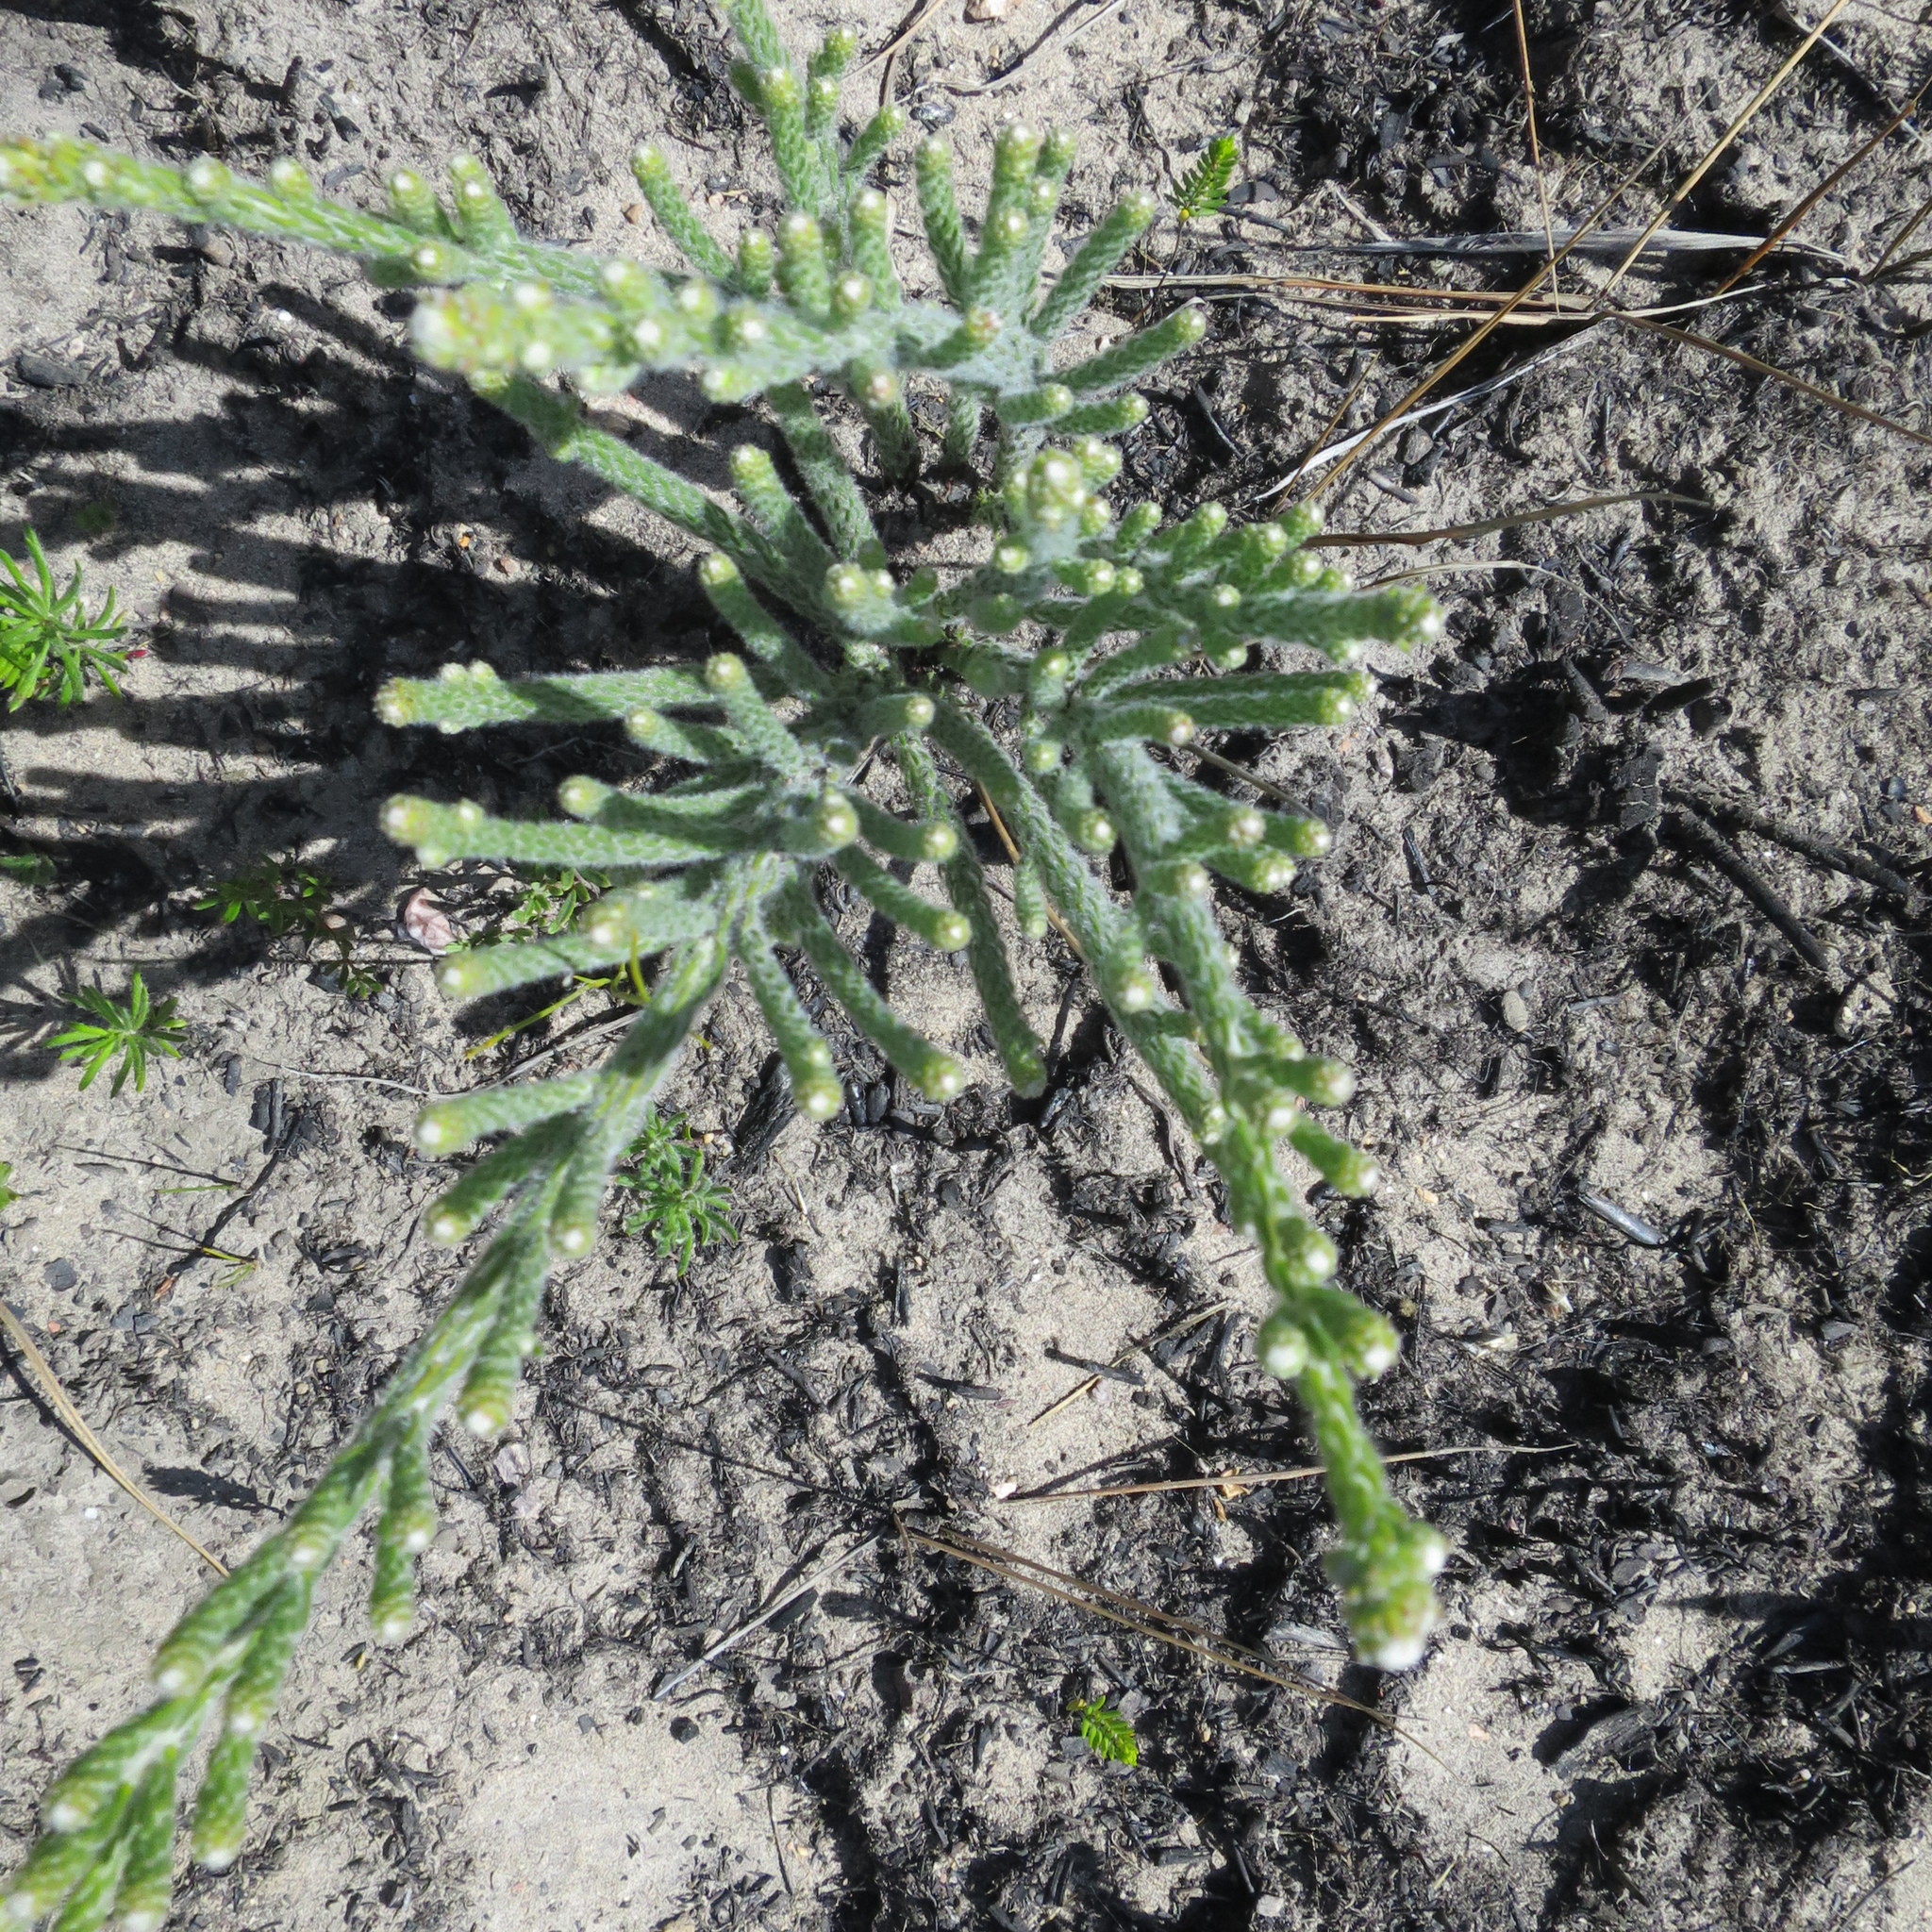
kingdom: Plantae
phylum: Tracheophyta
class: Magnoliopsida
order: Bruniales
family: Bruniaceae
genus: Brunia
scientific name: Brunia noduliflora
